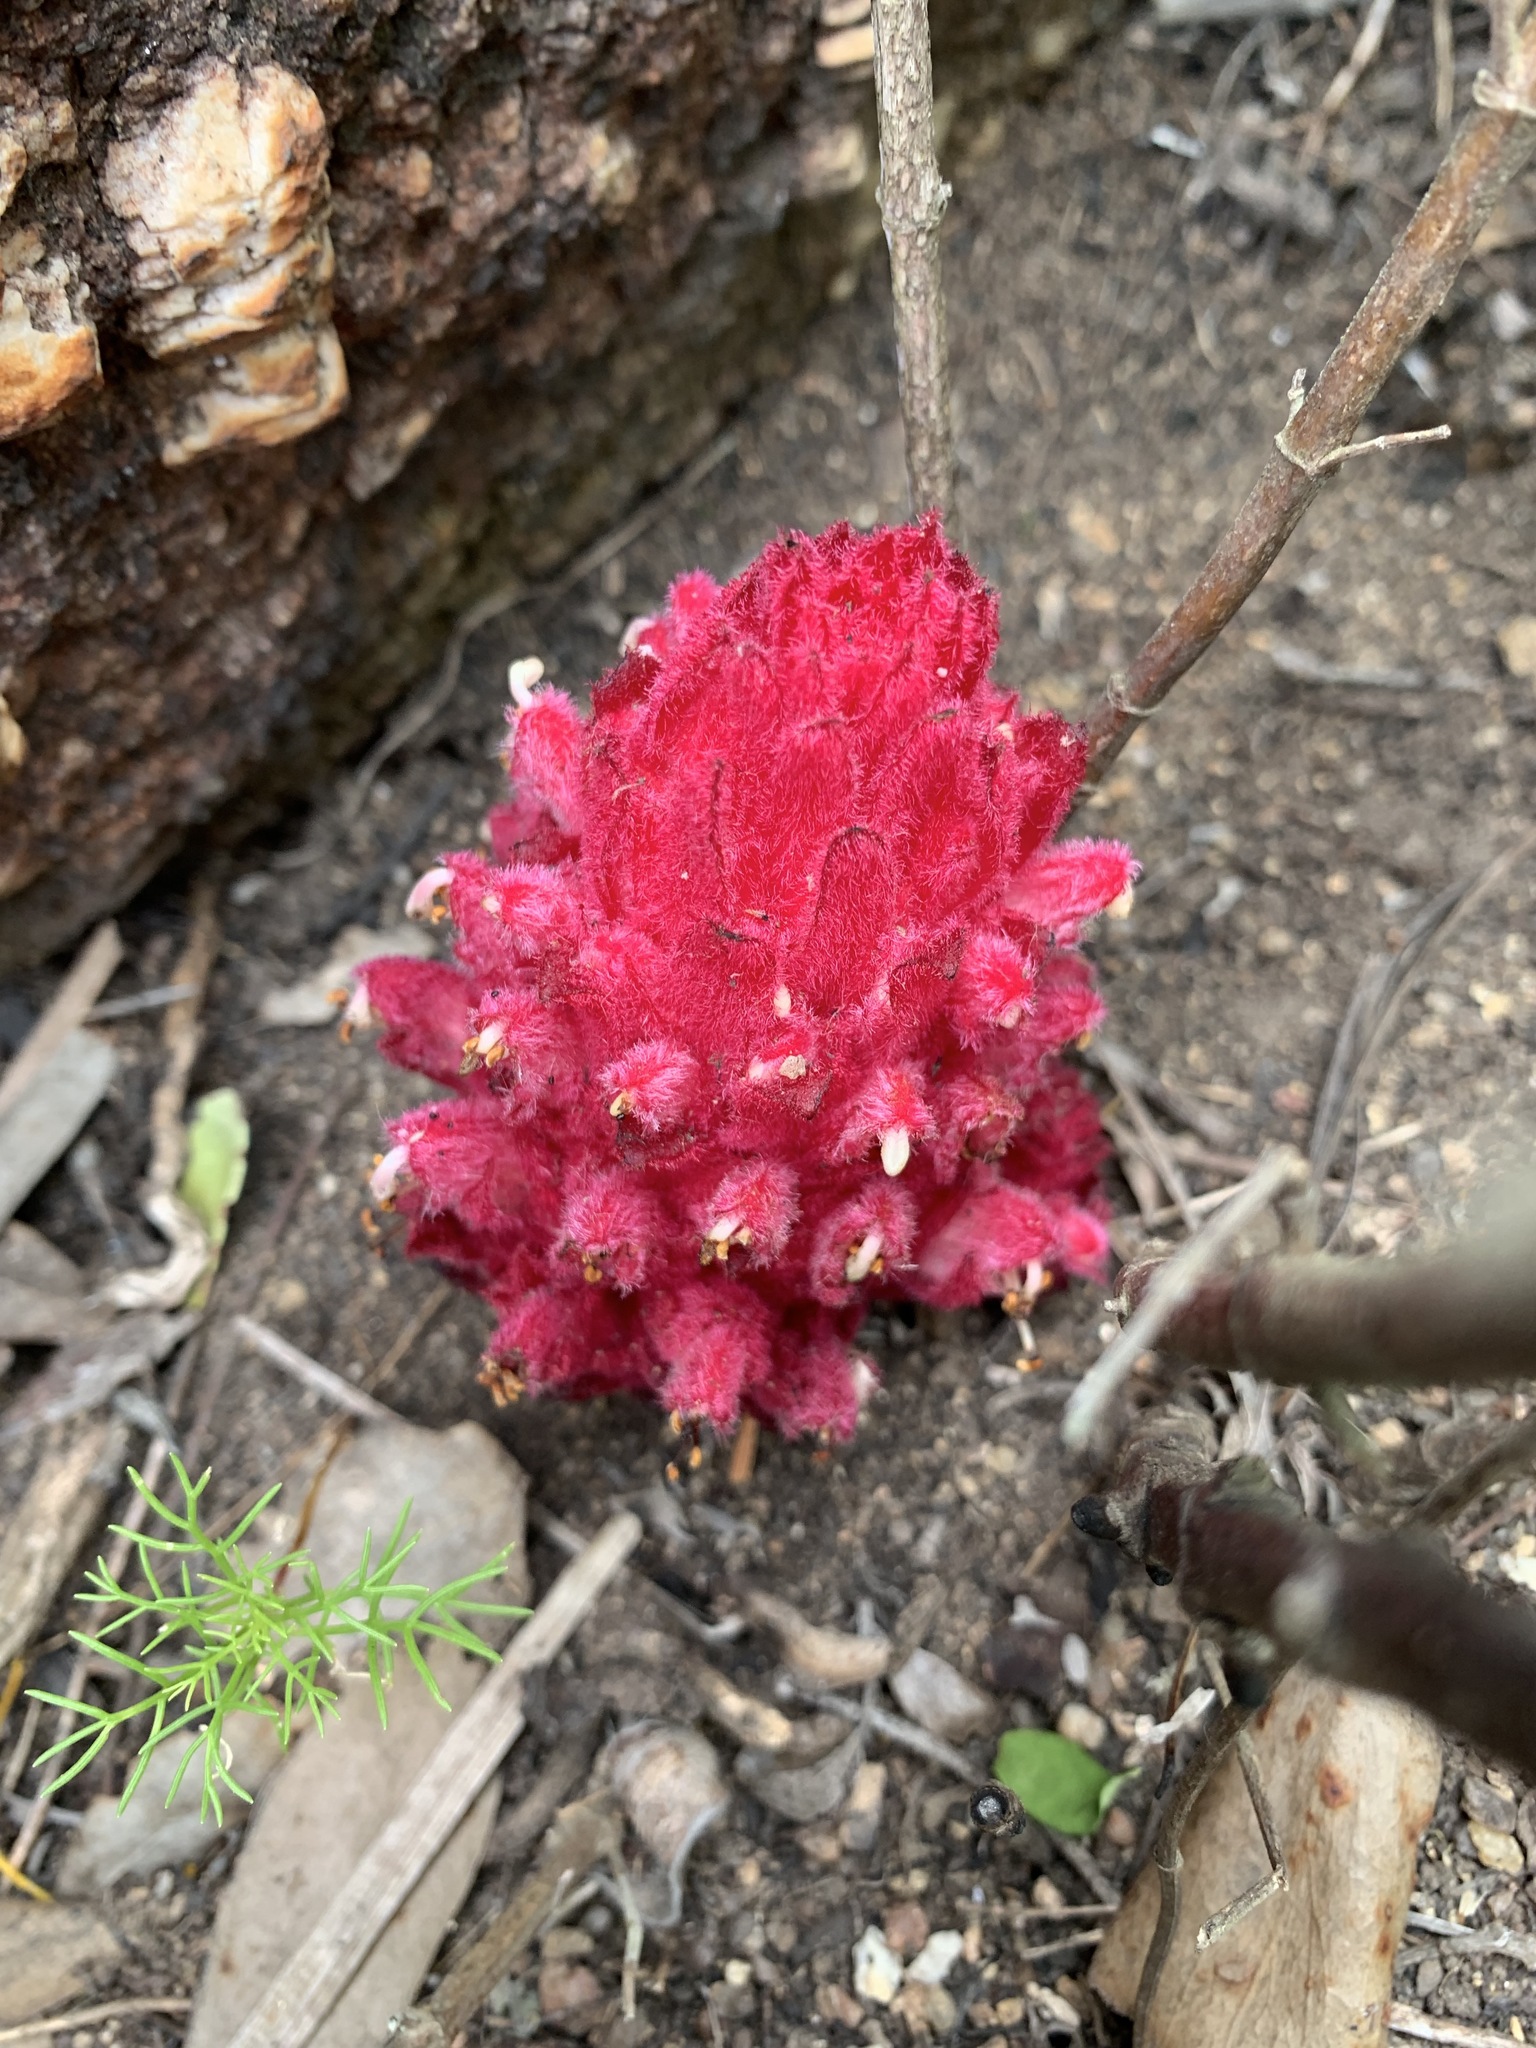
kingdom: Plantae
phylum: Tracheophyta
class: Magnoliopsida
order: Lamiales
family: Orobanchaceae
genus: Hyobanche
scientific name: Hyobanche sanguinea
